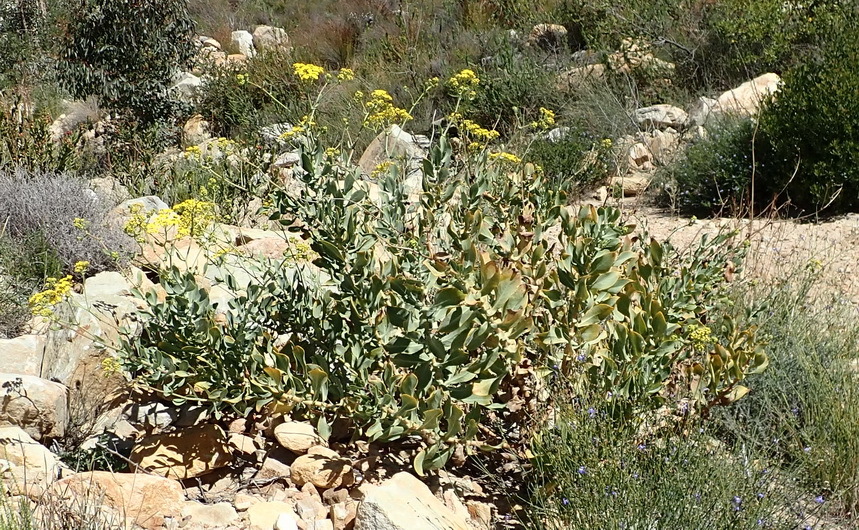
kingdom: Plantae
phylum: Tracheophyta
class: Magnoliopsida
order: Asterales
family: Asteraceae
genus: Othonna
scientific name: Othonna parviflora
